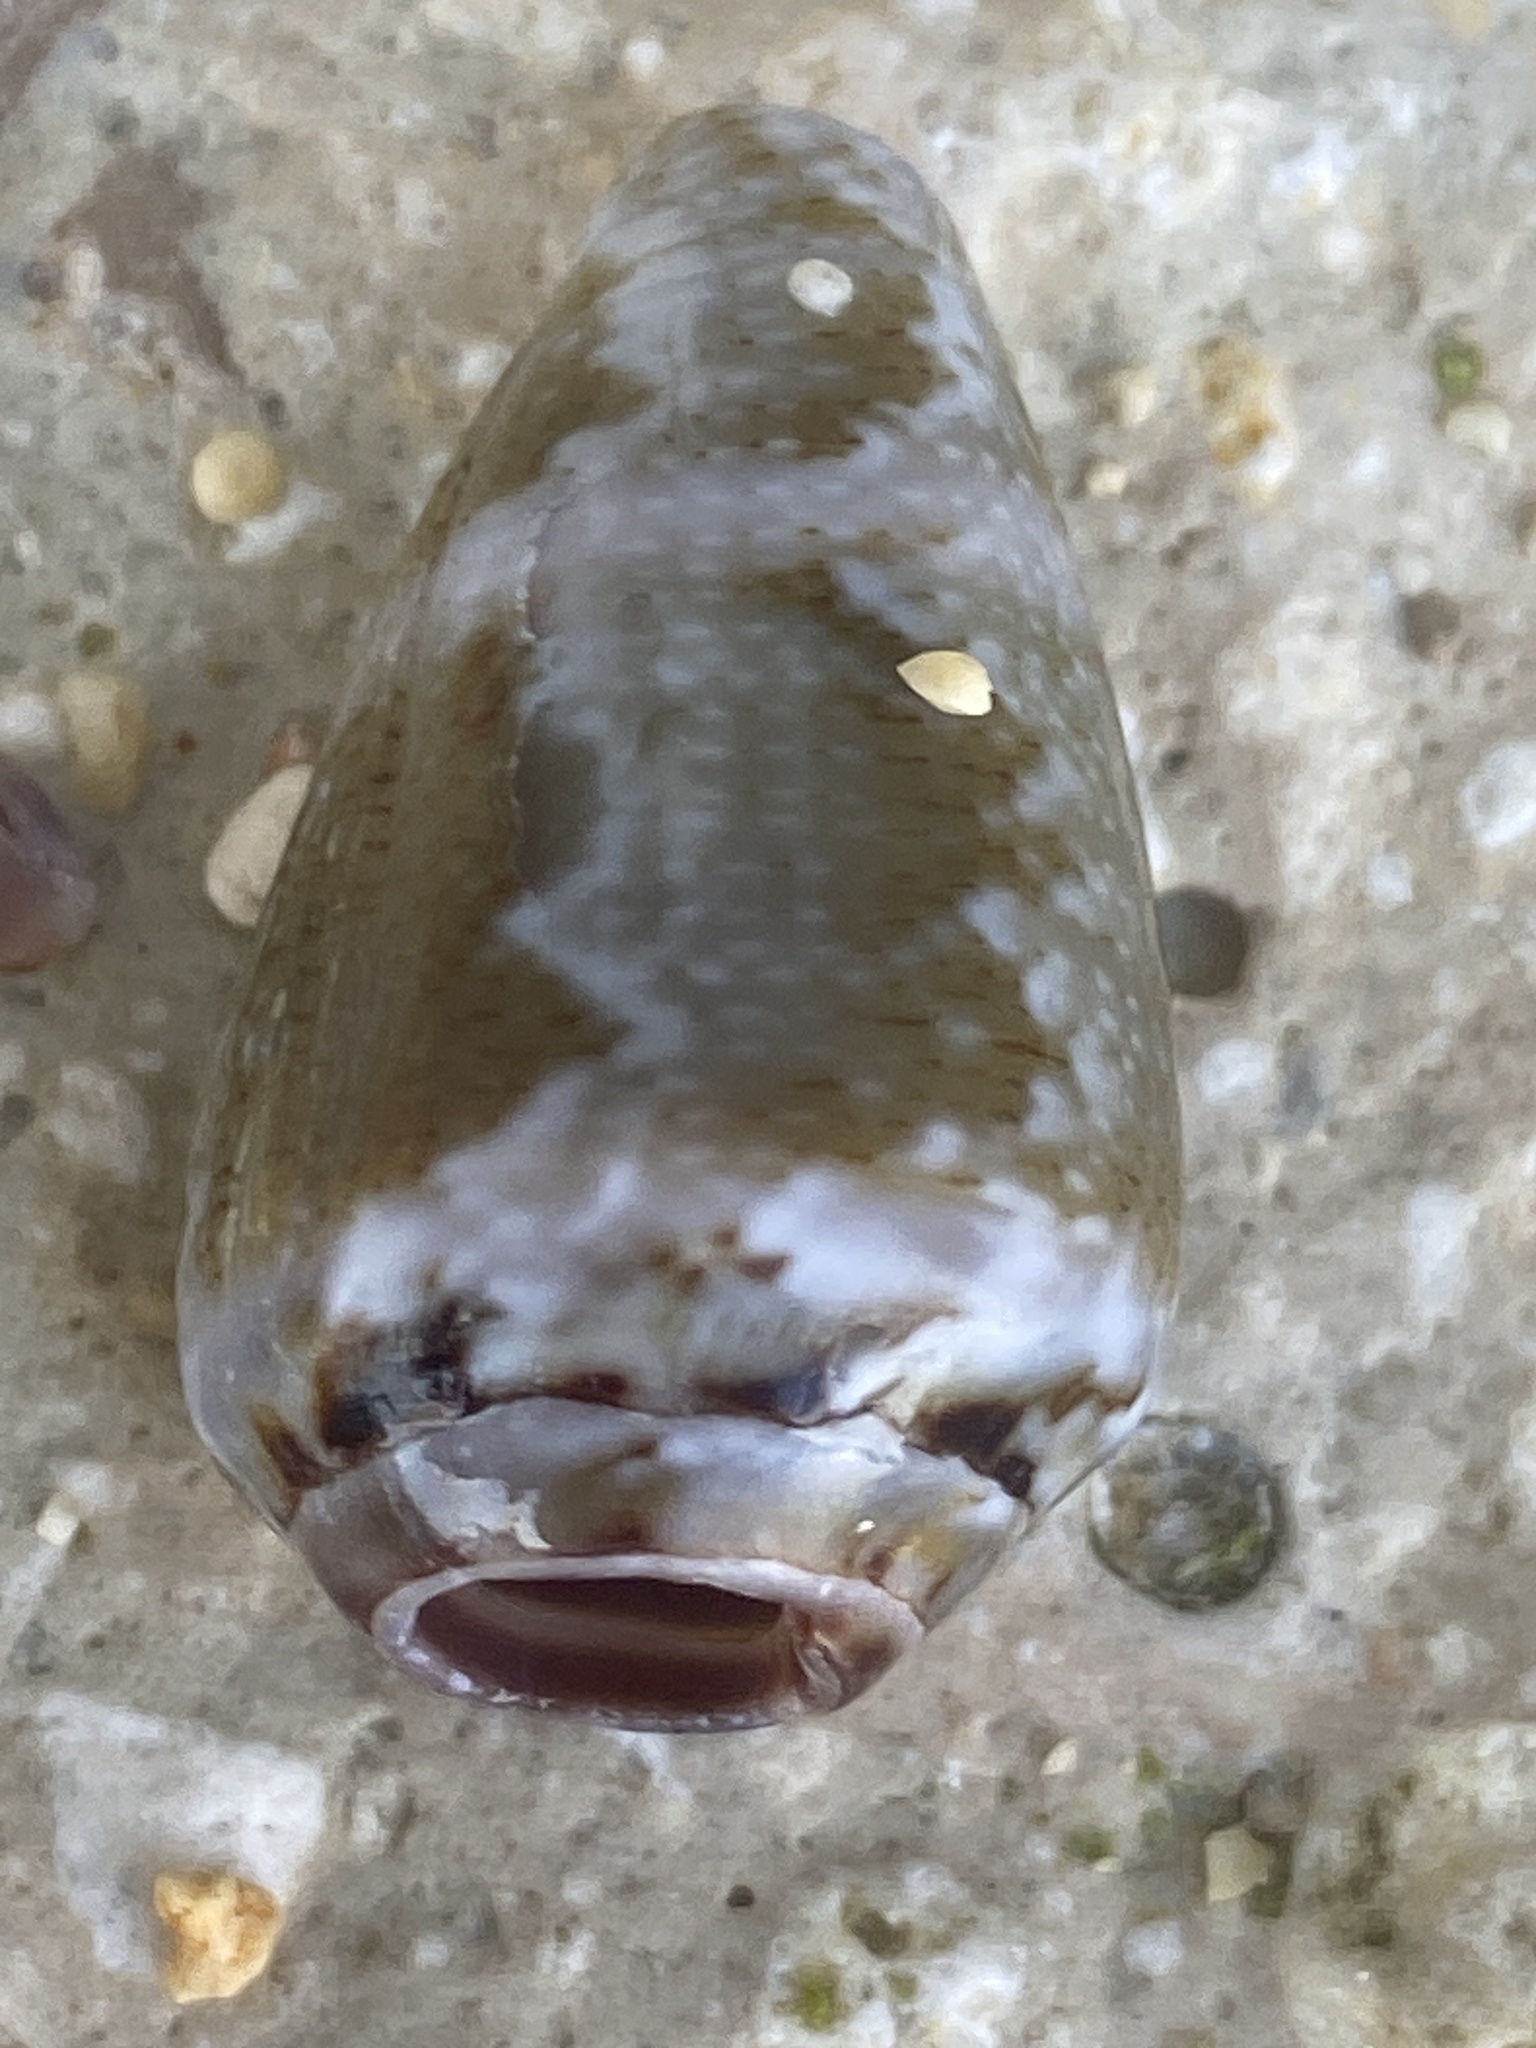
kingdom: Animalia
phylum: Mollusca
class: Gastropoda
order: Neogastropoda
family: Conidae
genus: Conus
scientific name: Conus ventricosus
